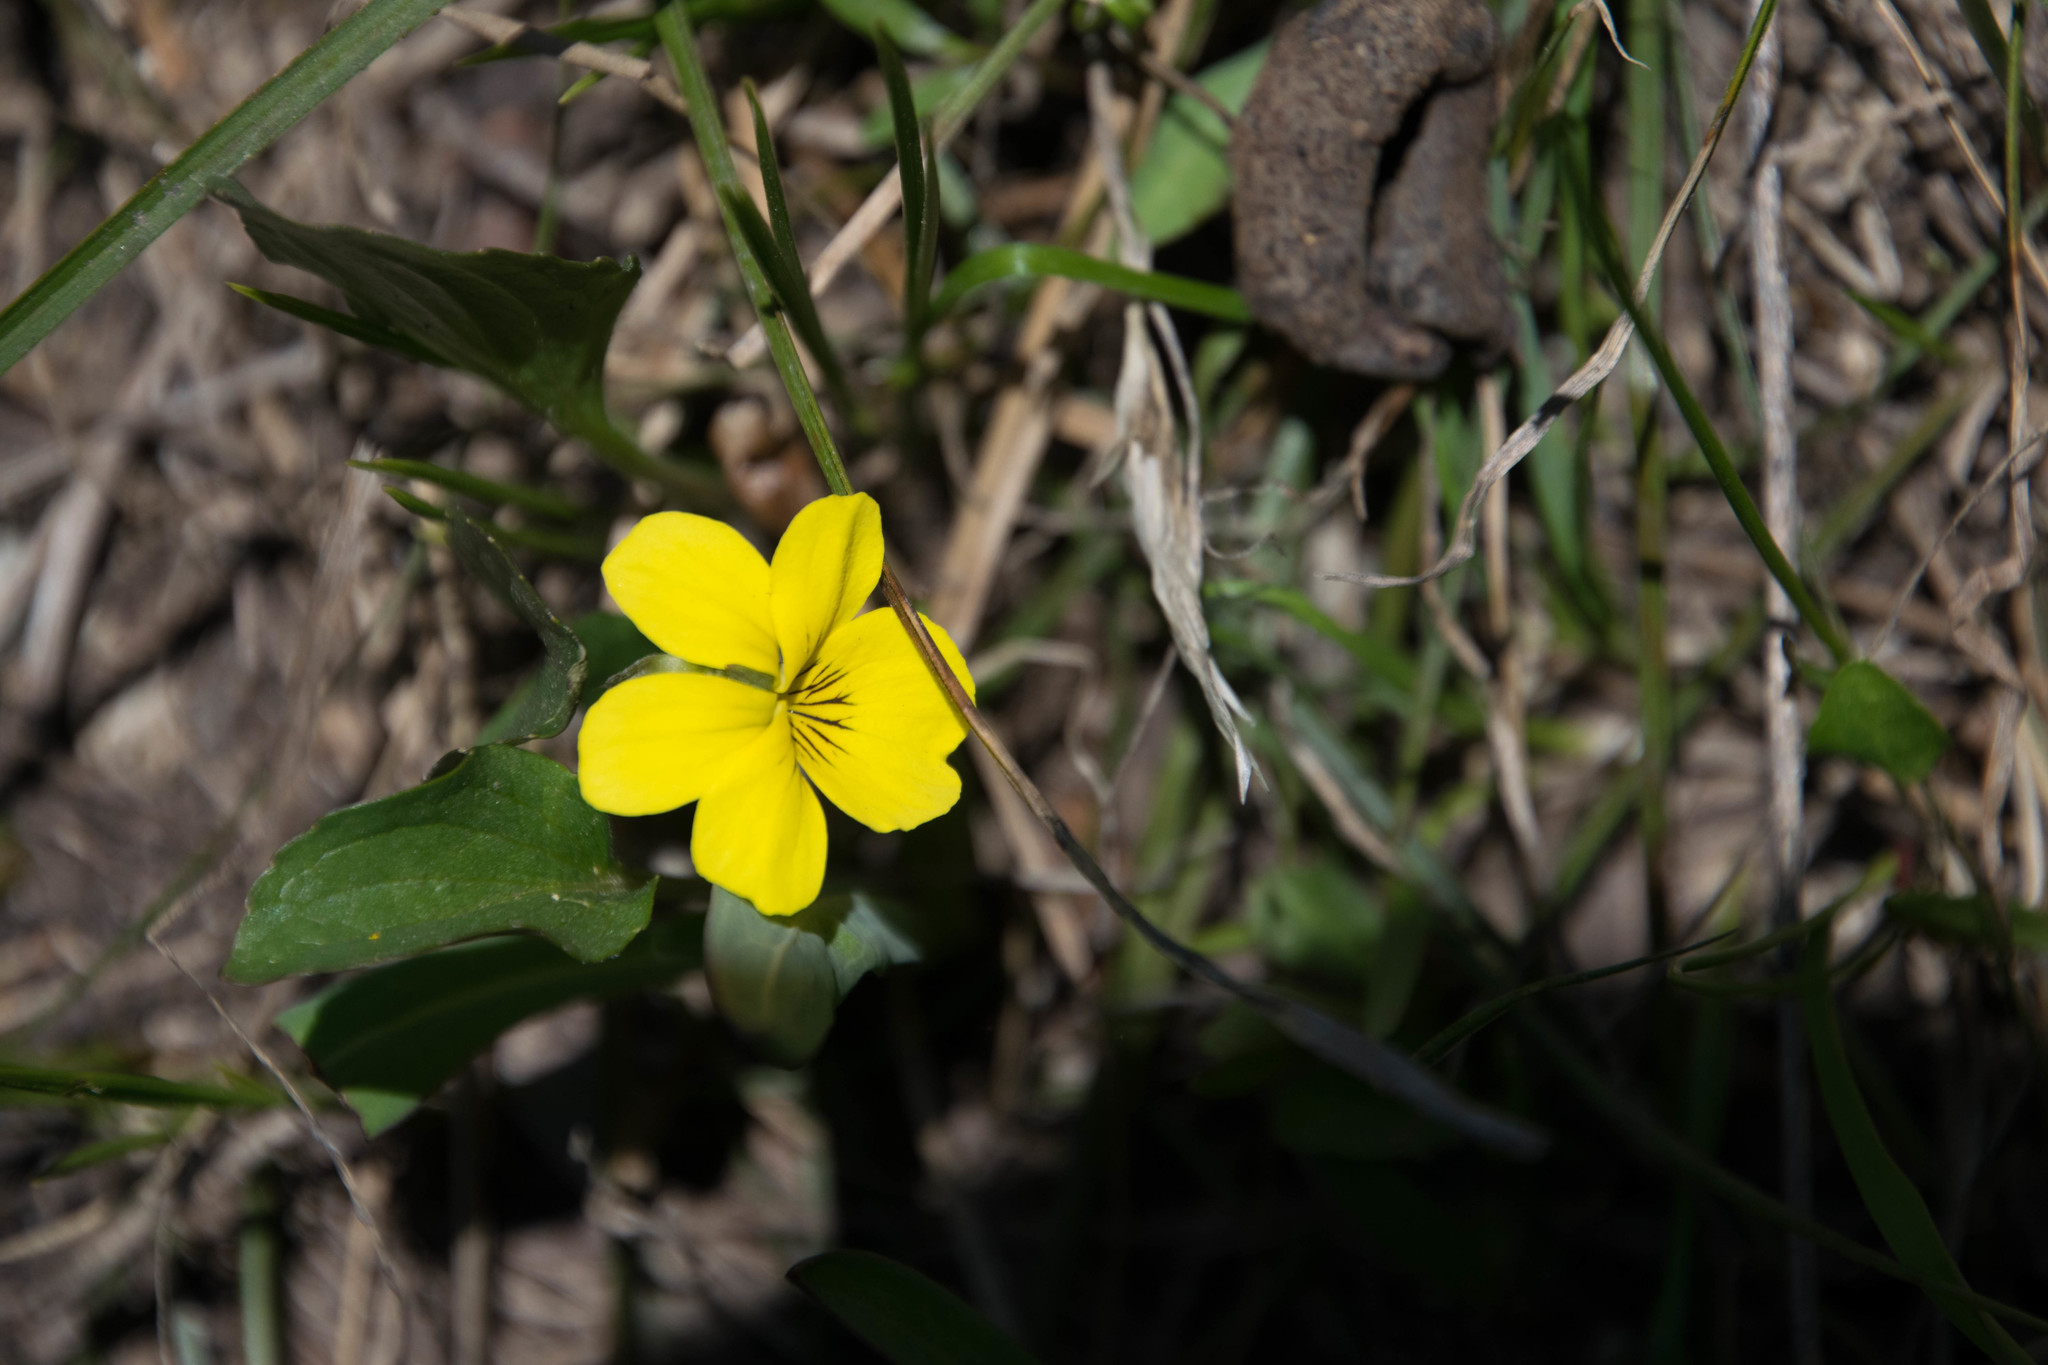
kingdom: Plantae
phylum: Tracheophyta
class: Magnoliopsida
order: Malpighiales
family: Violaceae
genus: Viola
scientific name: Viola praemorsa
